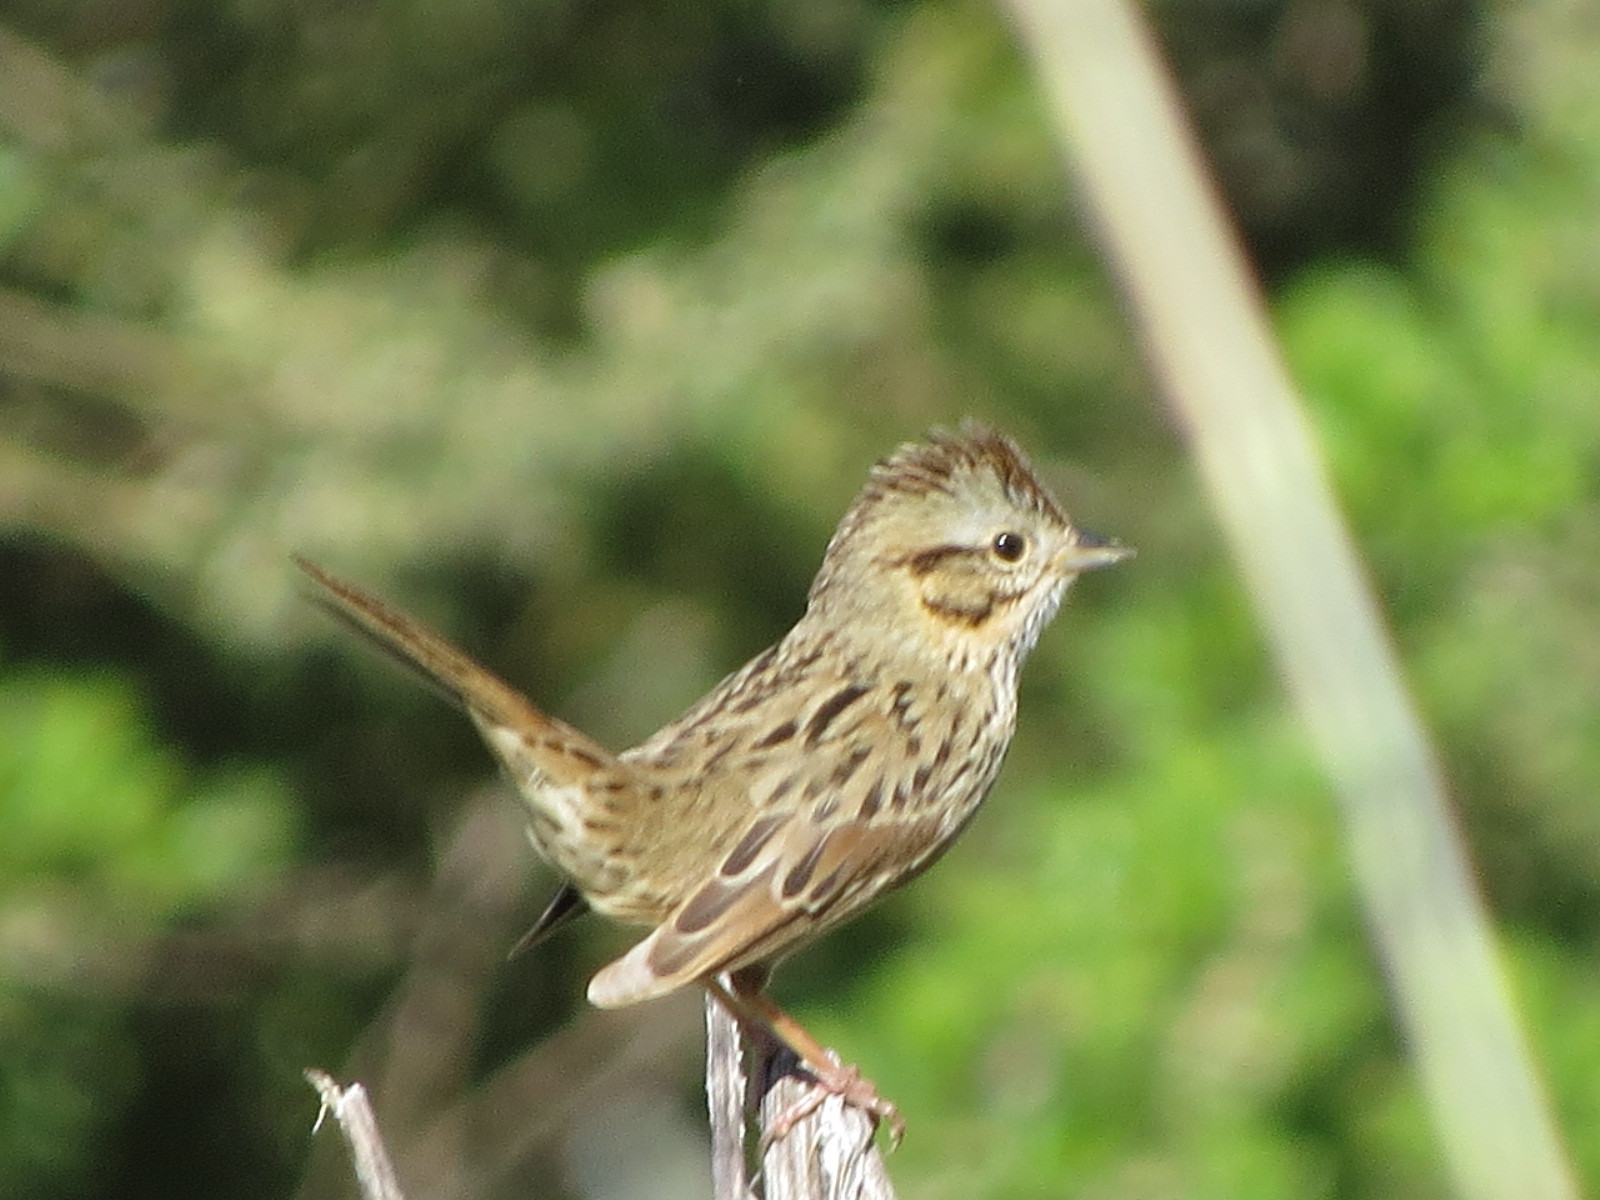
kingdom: Animalia
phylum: Chordata
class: Aves
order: Passeriformes
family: Passerellidae
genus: Melospiza
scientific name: Melospiza lincolnii
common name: Lincoln's sparrow
